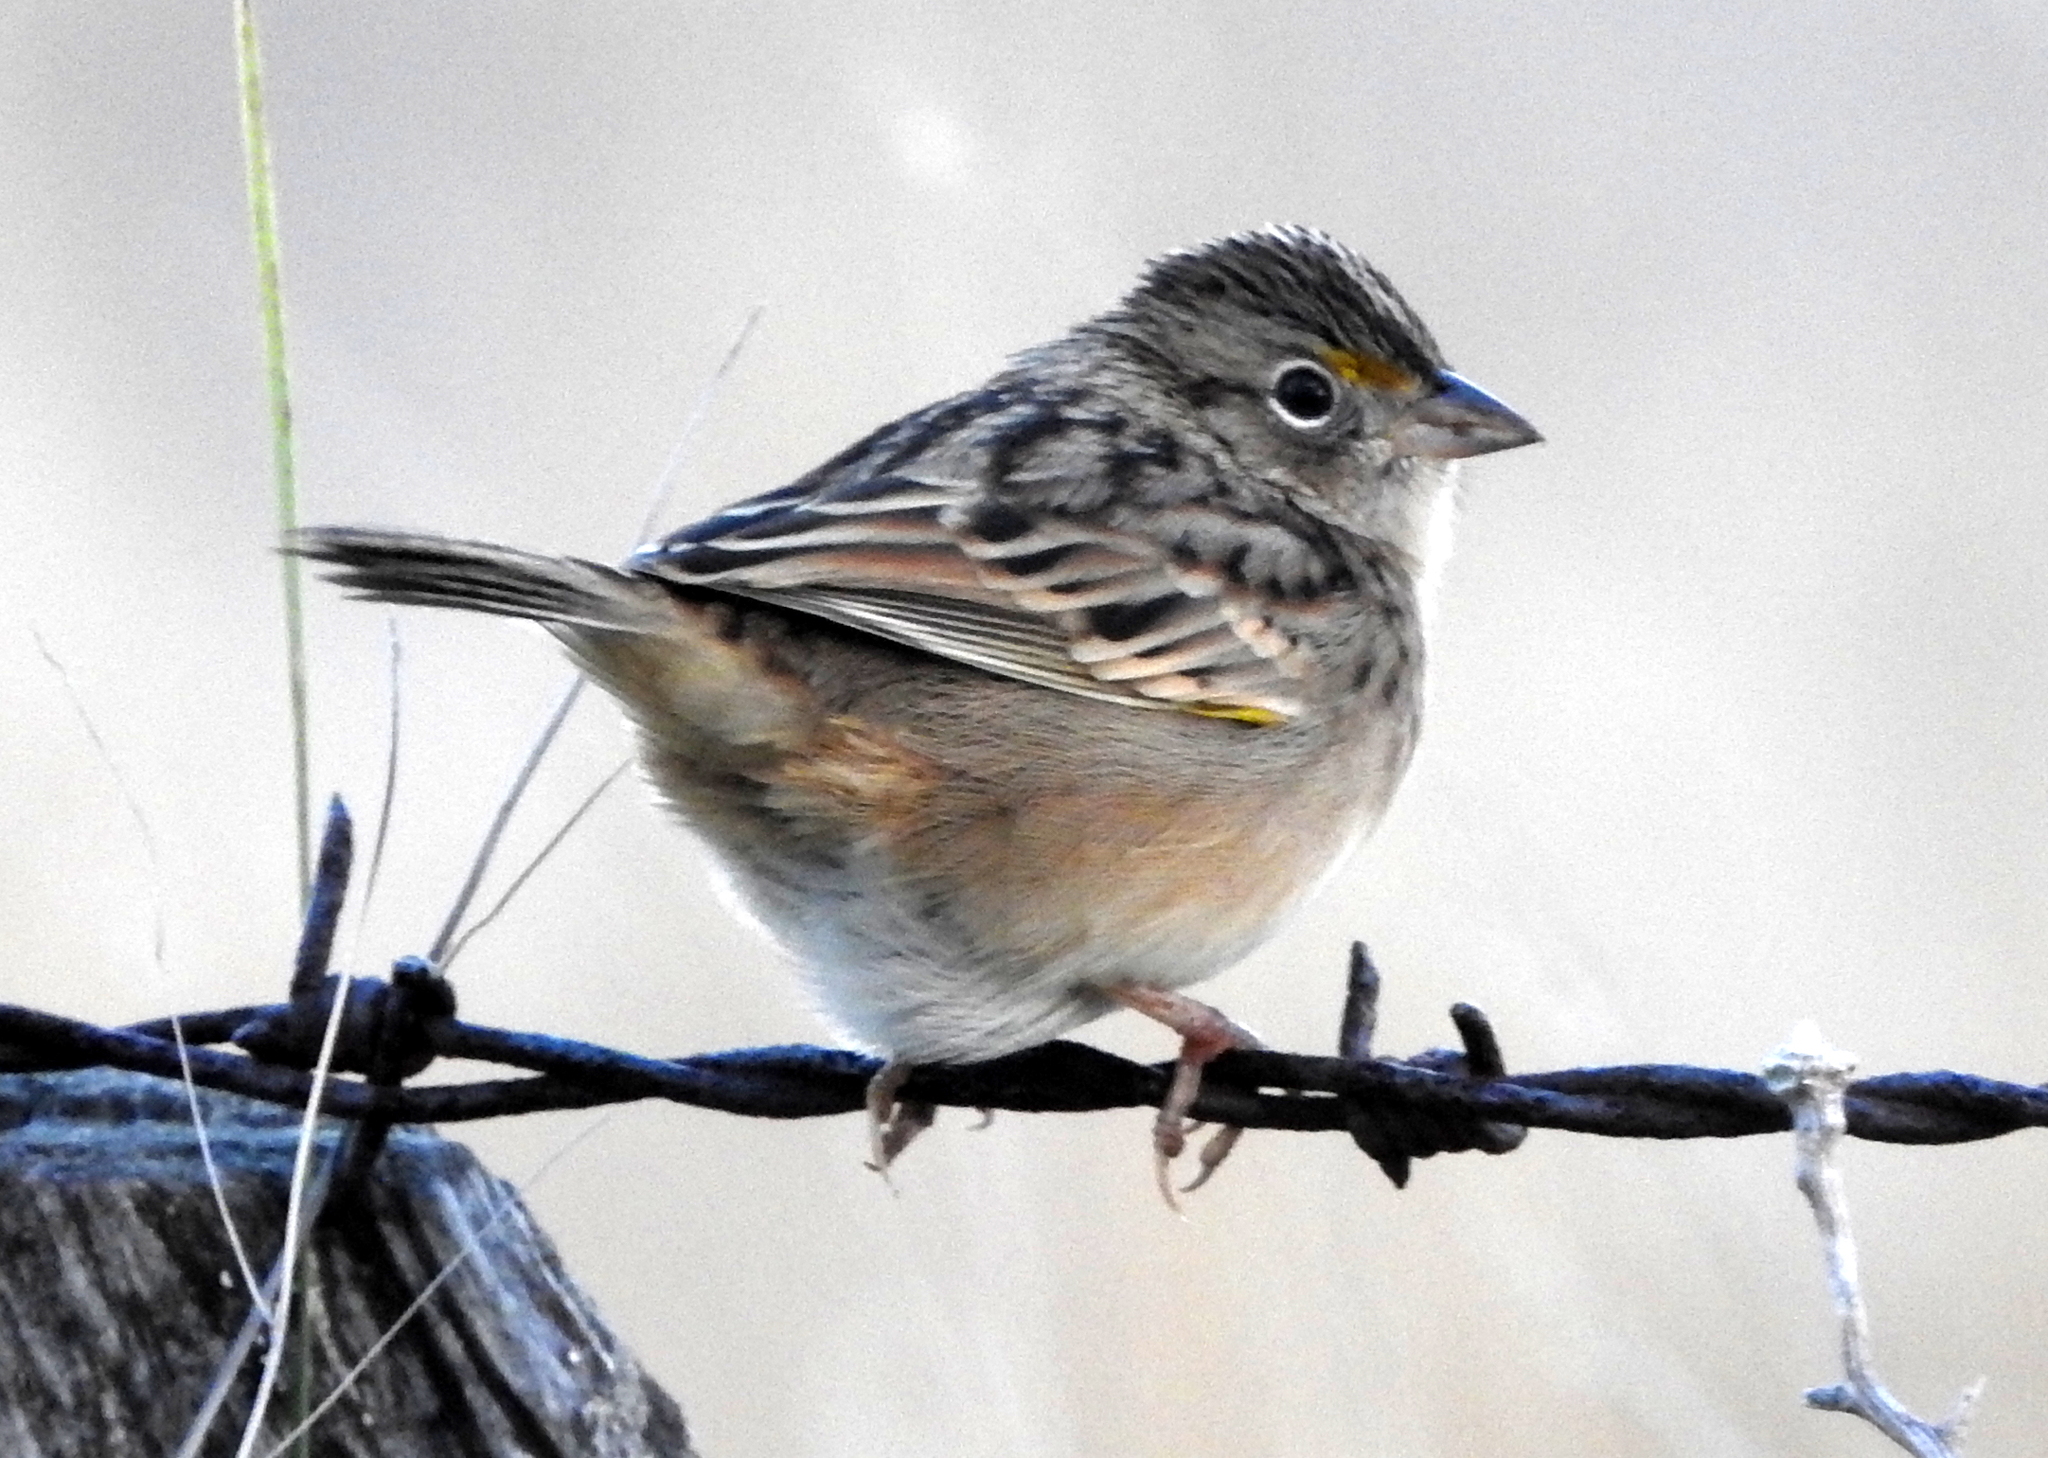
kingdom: Animalia
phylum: Chordata
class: Aves
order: Passeriformes
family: Passerellidae
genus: Ammodramus
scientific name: Ammodramus humeralis
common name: Grassland sparrow
